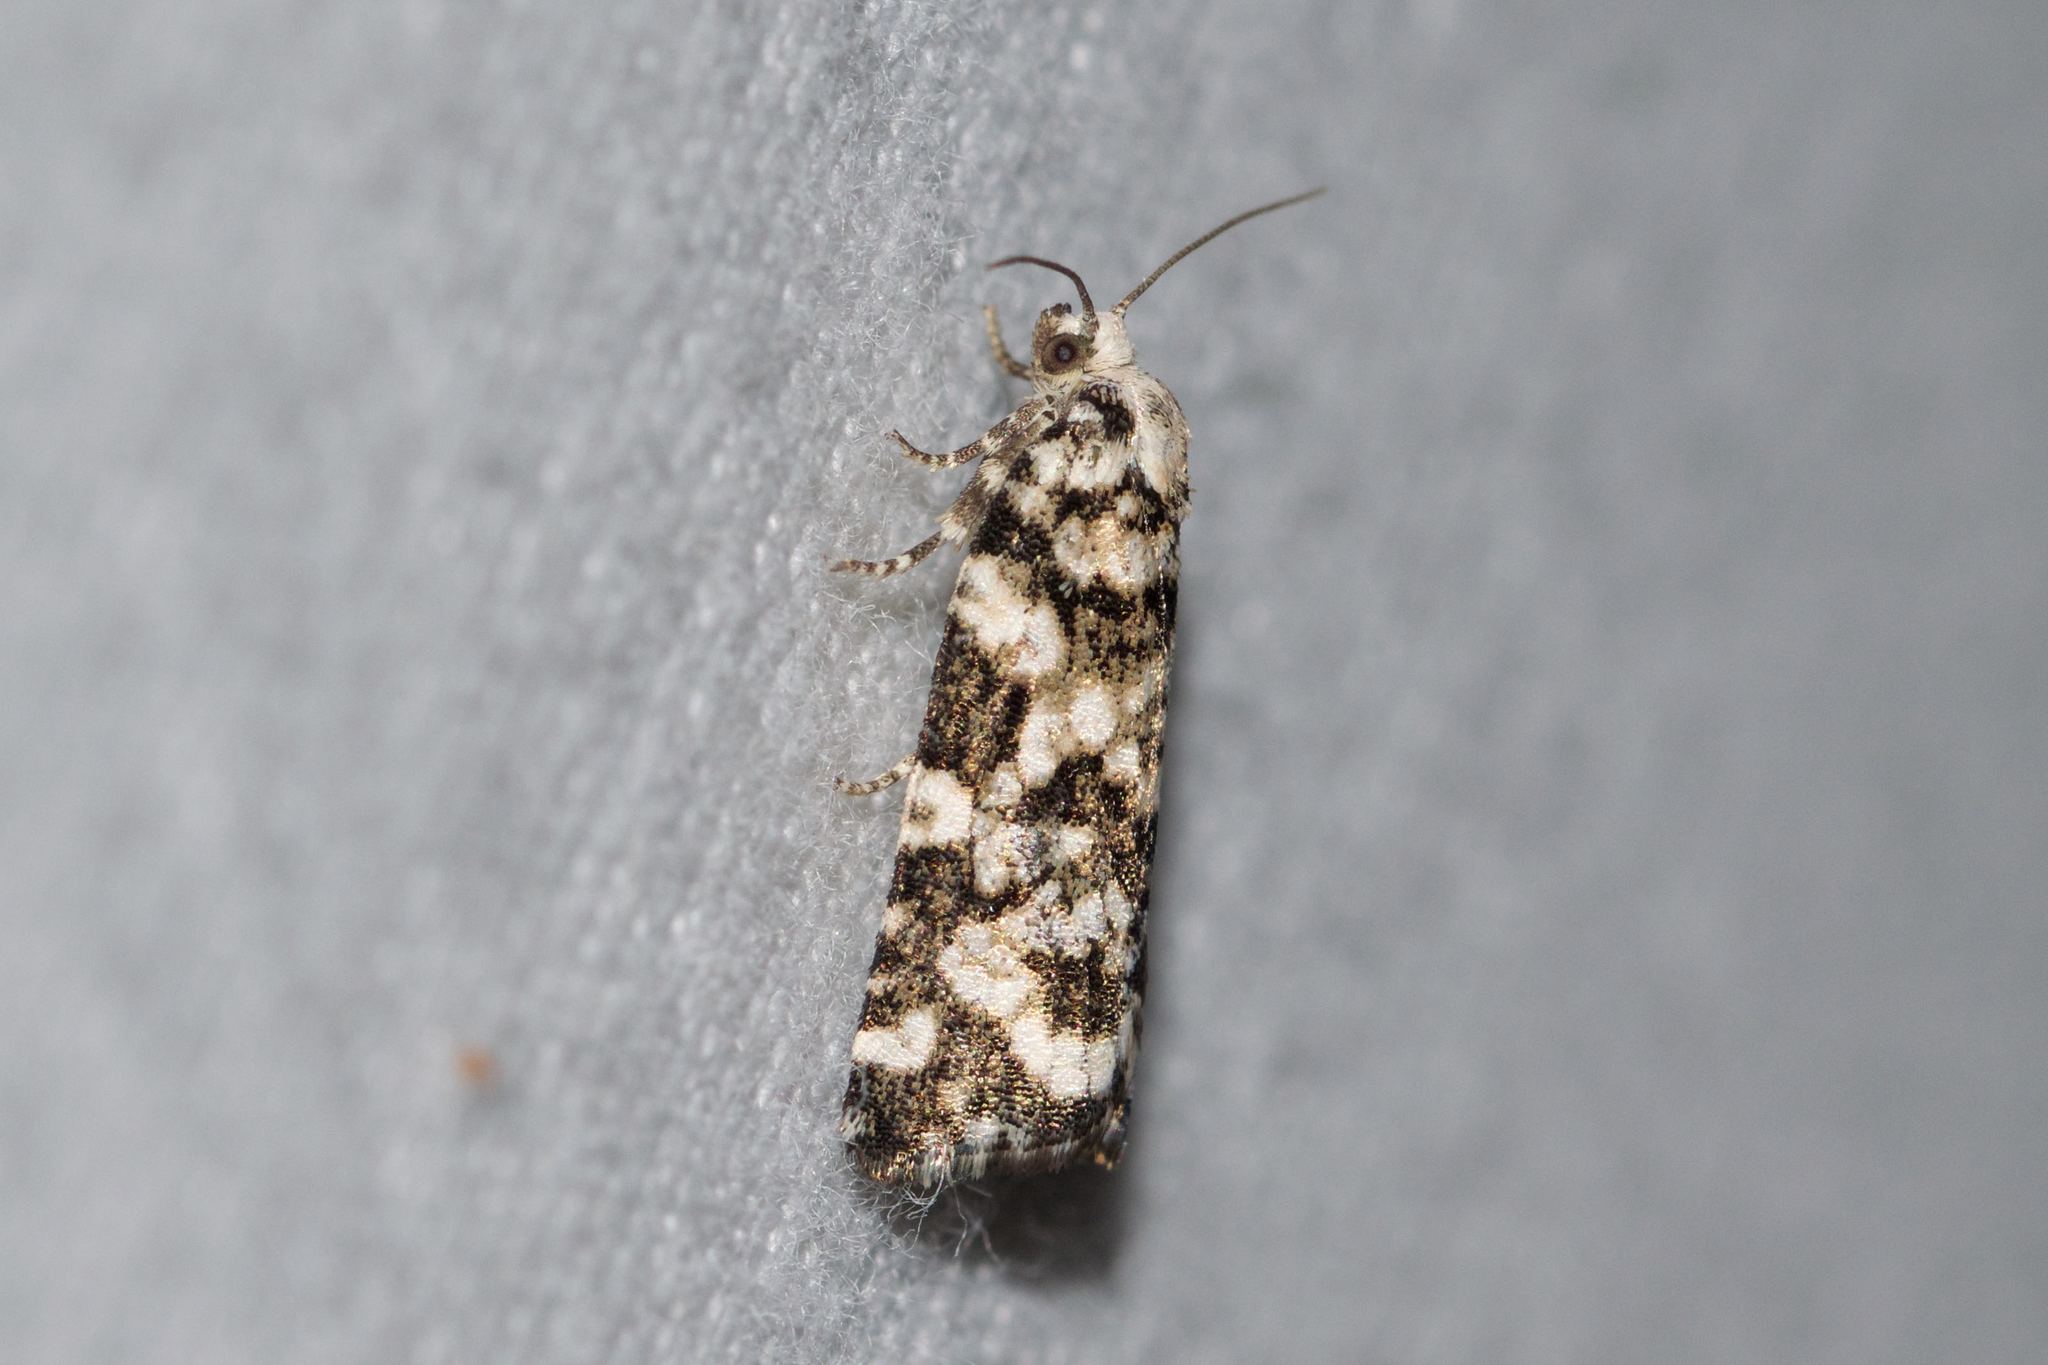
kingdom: Animalia
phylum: Arthropoda
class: Insecta
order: Lepidoptera
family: Tortricidae
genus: Archips
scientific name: Archips packardiana
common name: Spring spruce needle moth
